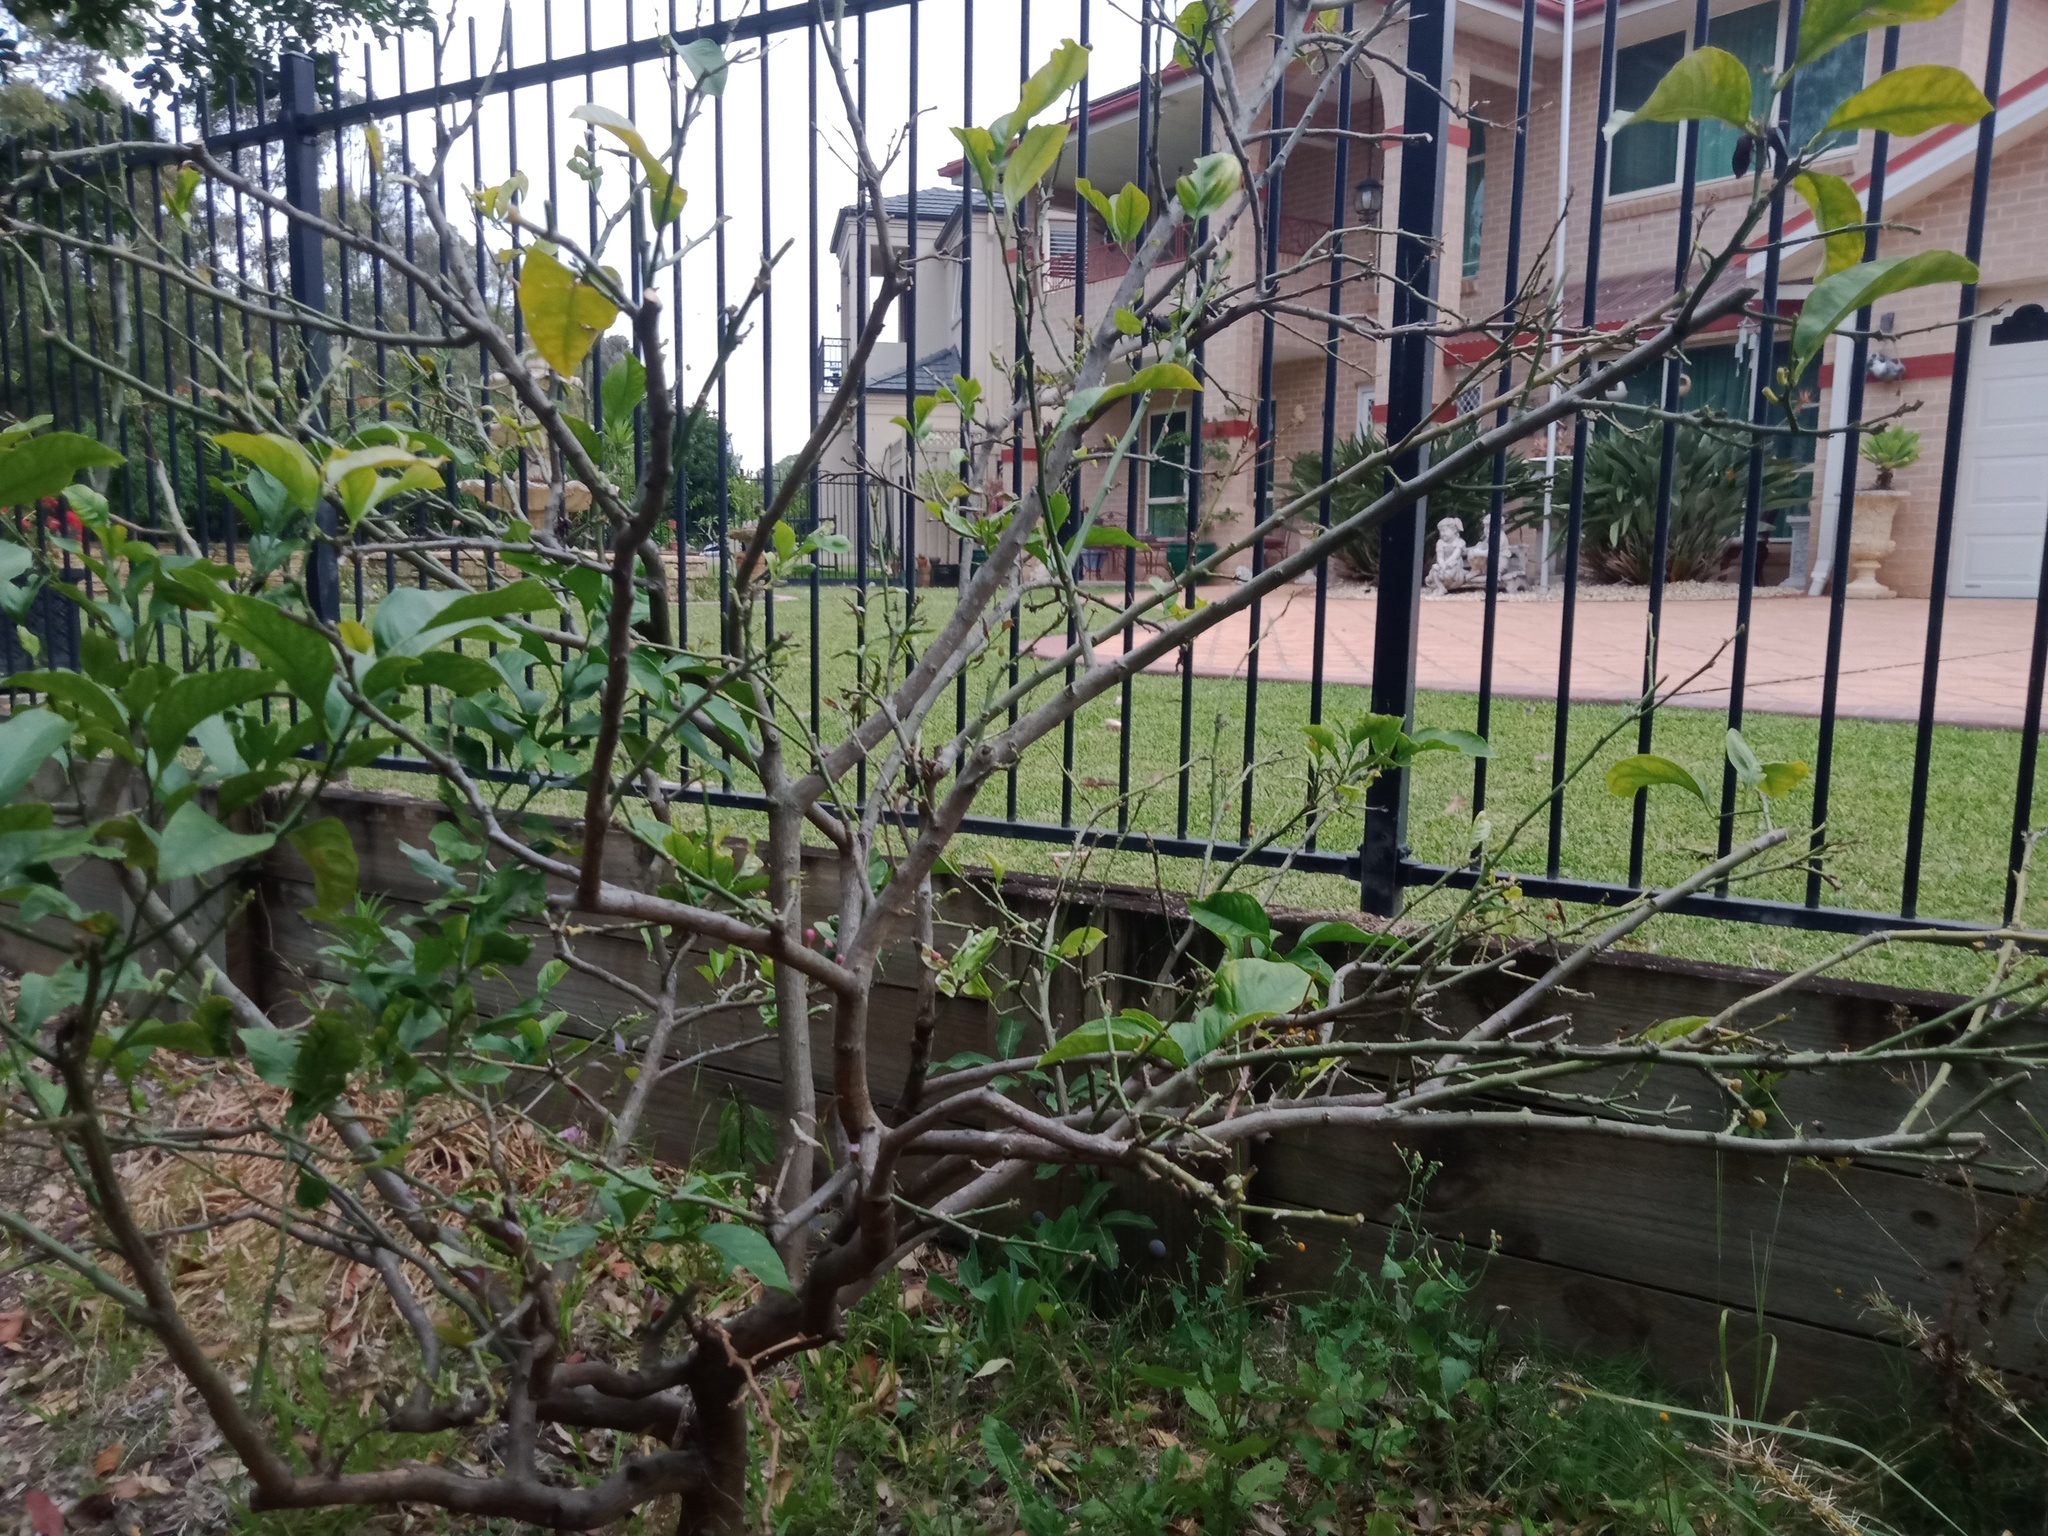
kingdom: Animalia
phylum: Arthropoda
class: Insecta
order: Hemiptera
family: Tessaratomidae
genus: Musgraveia
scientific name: Musgraveia sulciventris
